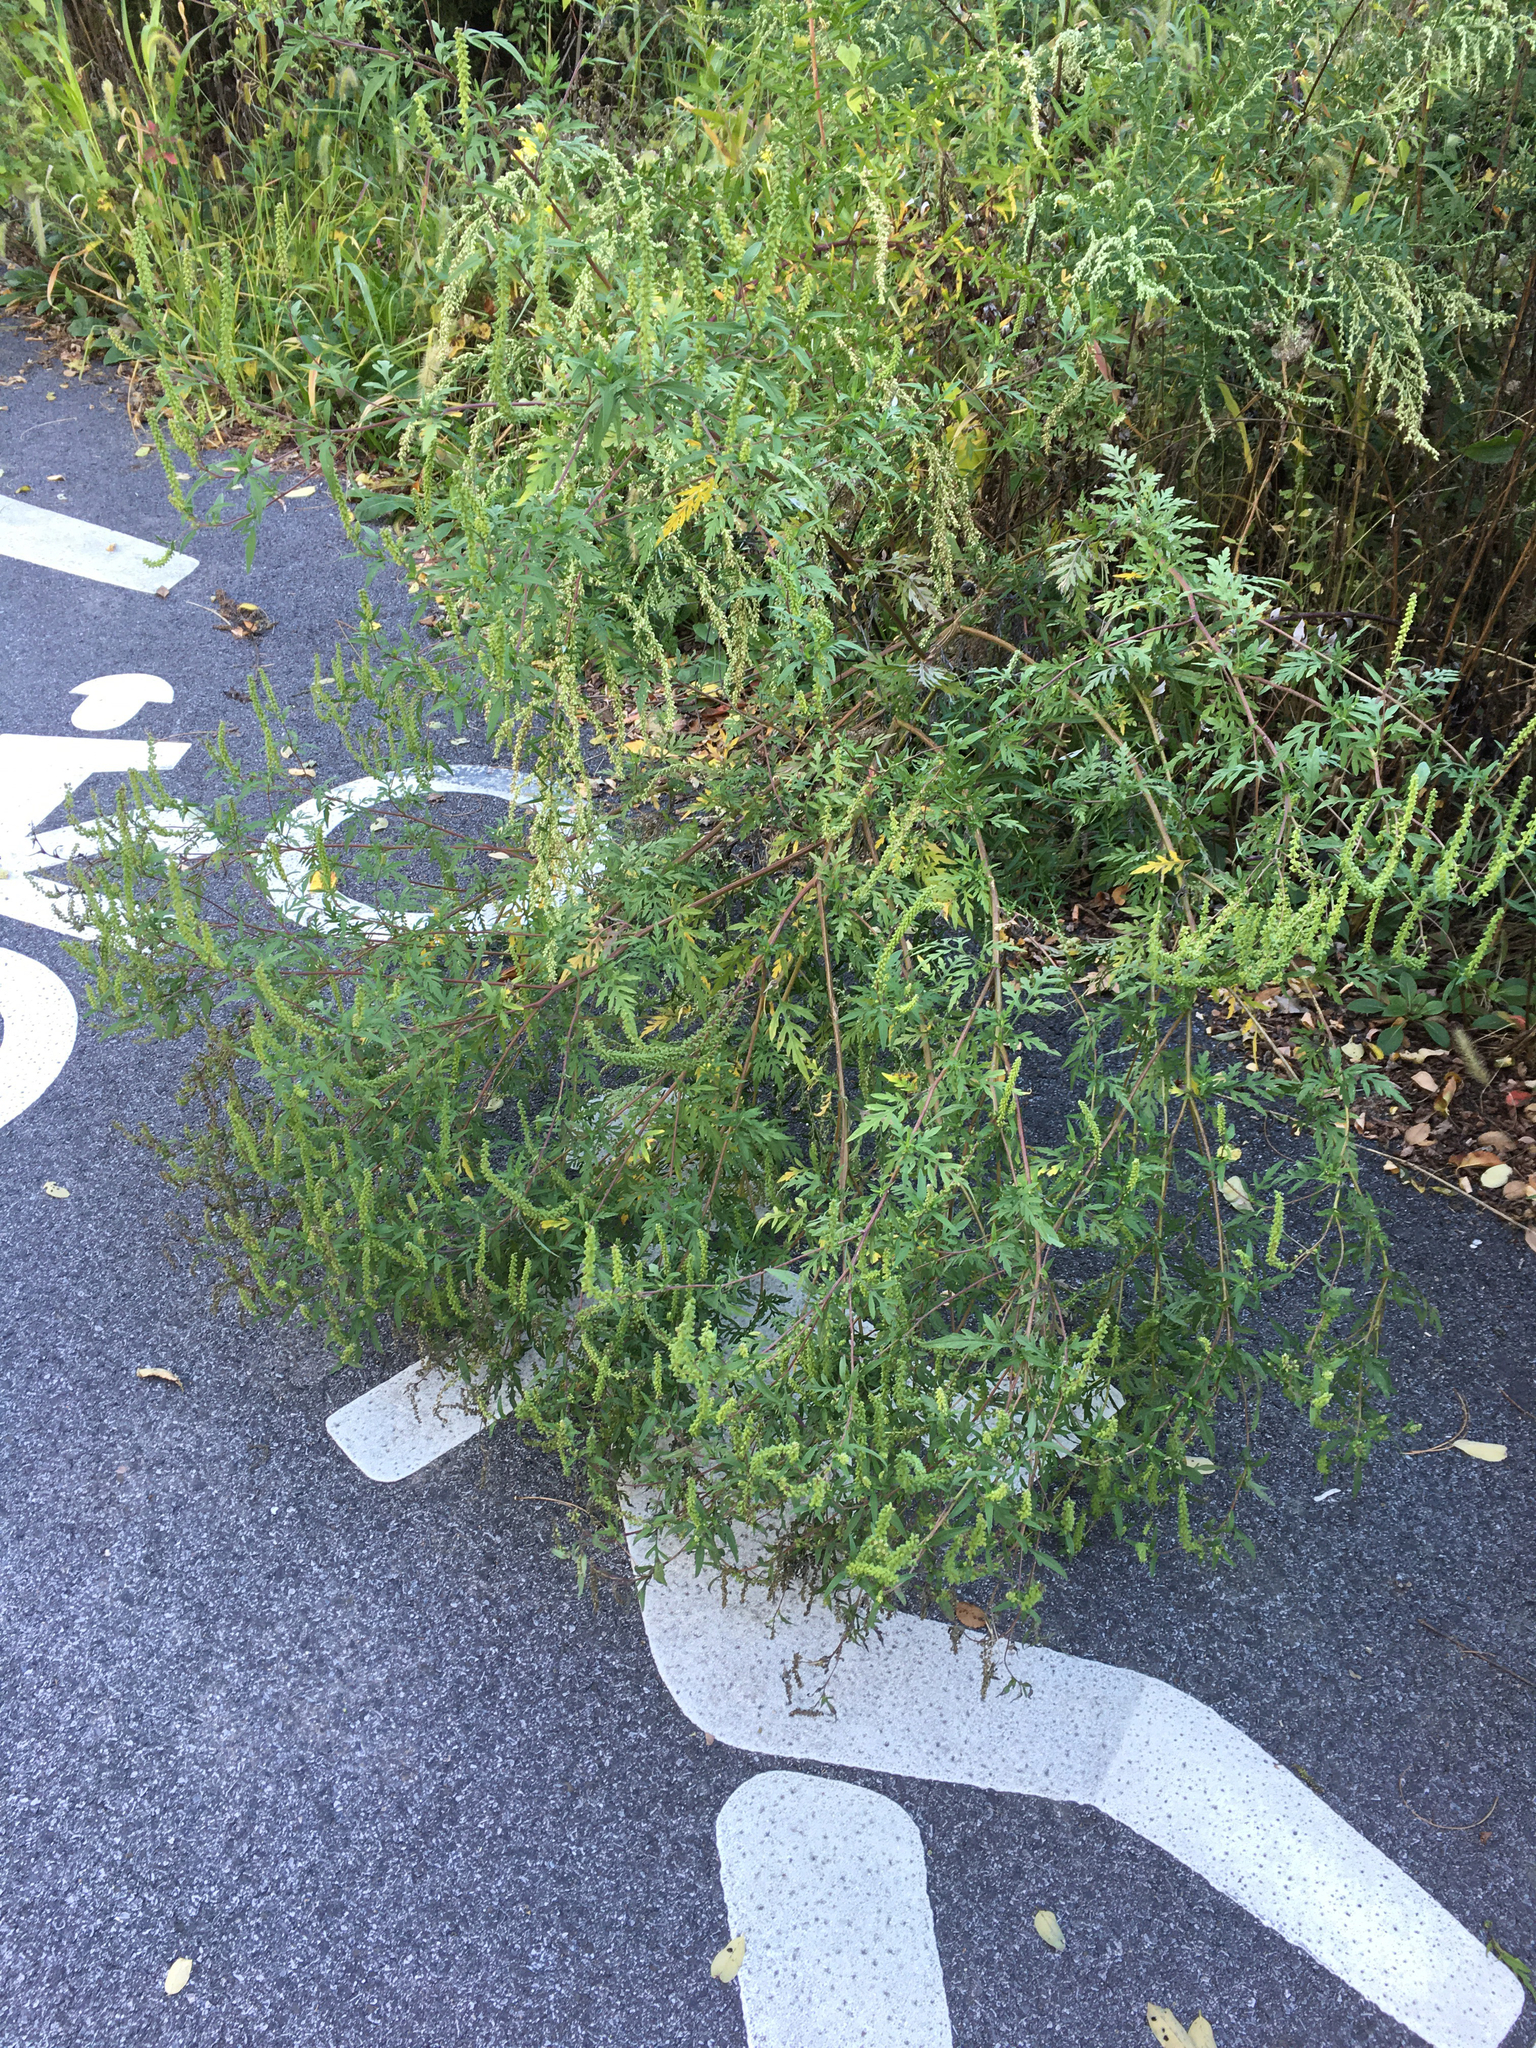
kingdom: Plantae
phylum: Tracheophyta
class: Magnoliopsida
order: Asterales
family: Asteraceae
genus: Ambrosia
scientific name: Ambrosia artemisiifolia
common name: Annual ragweed
